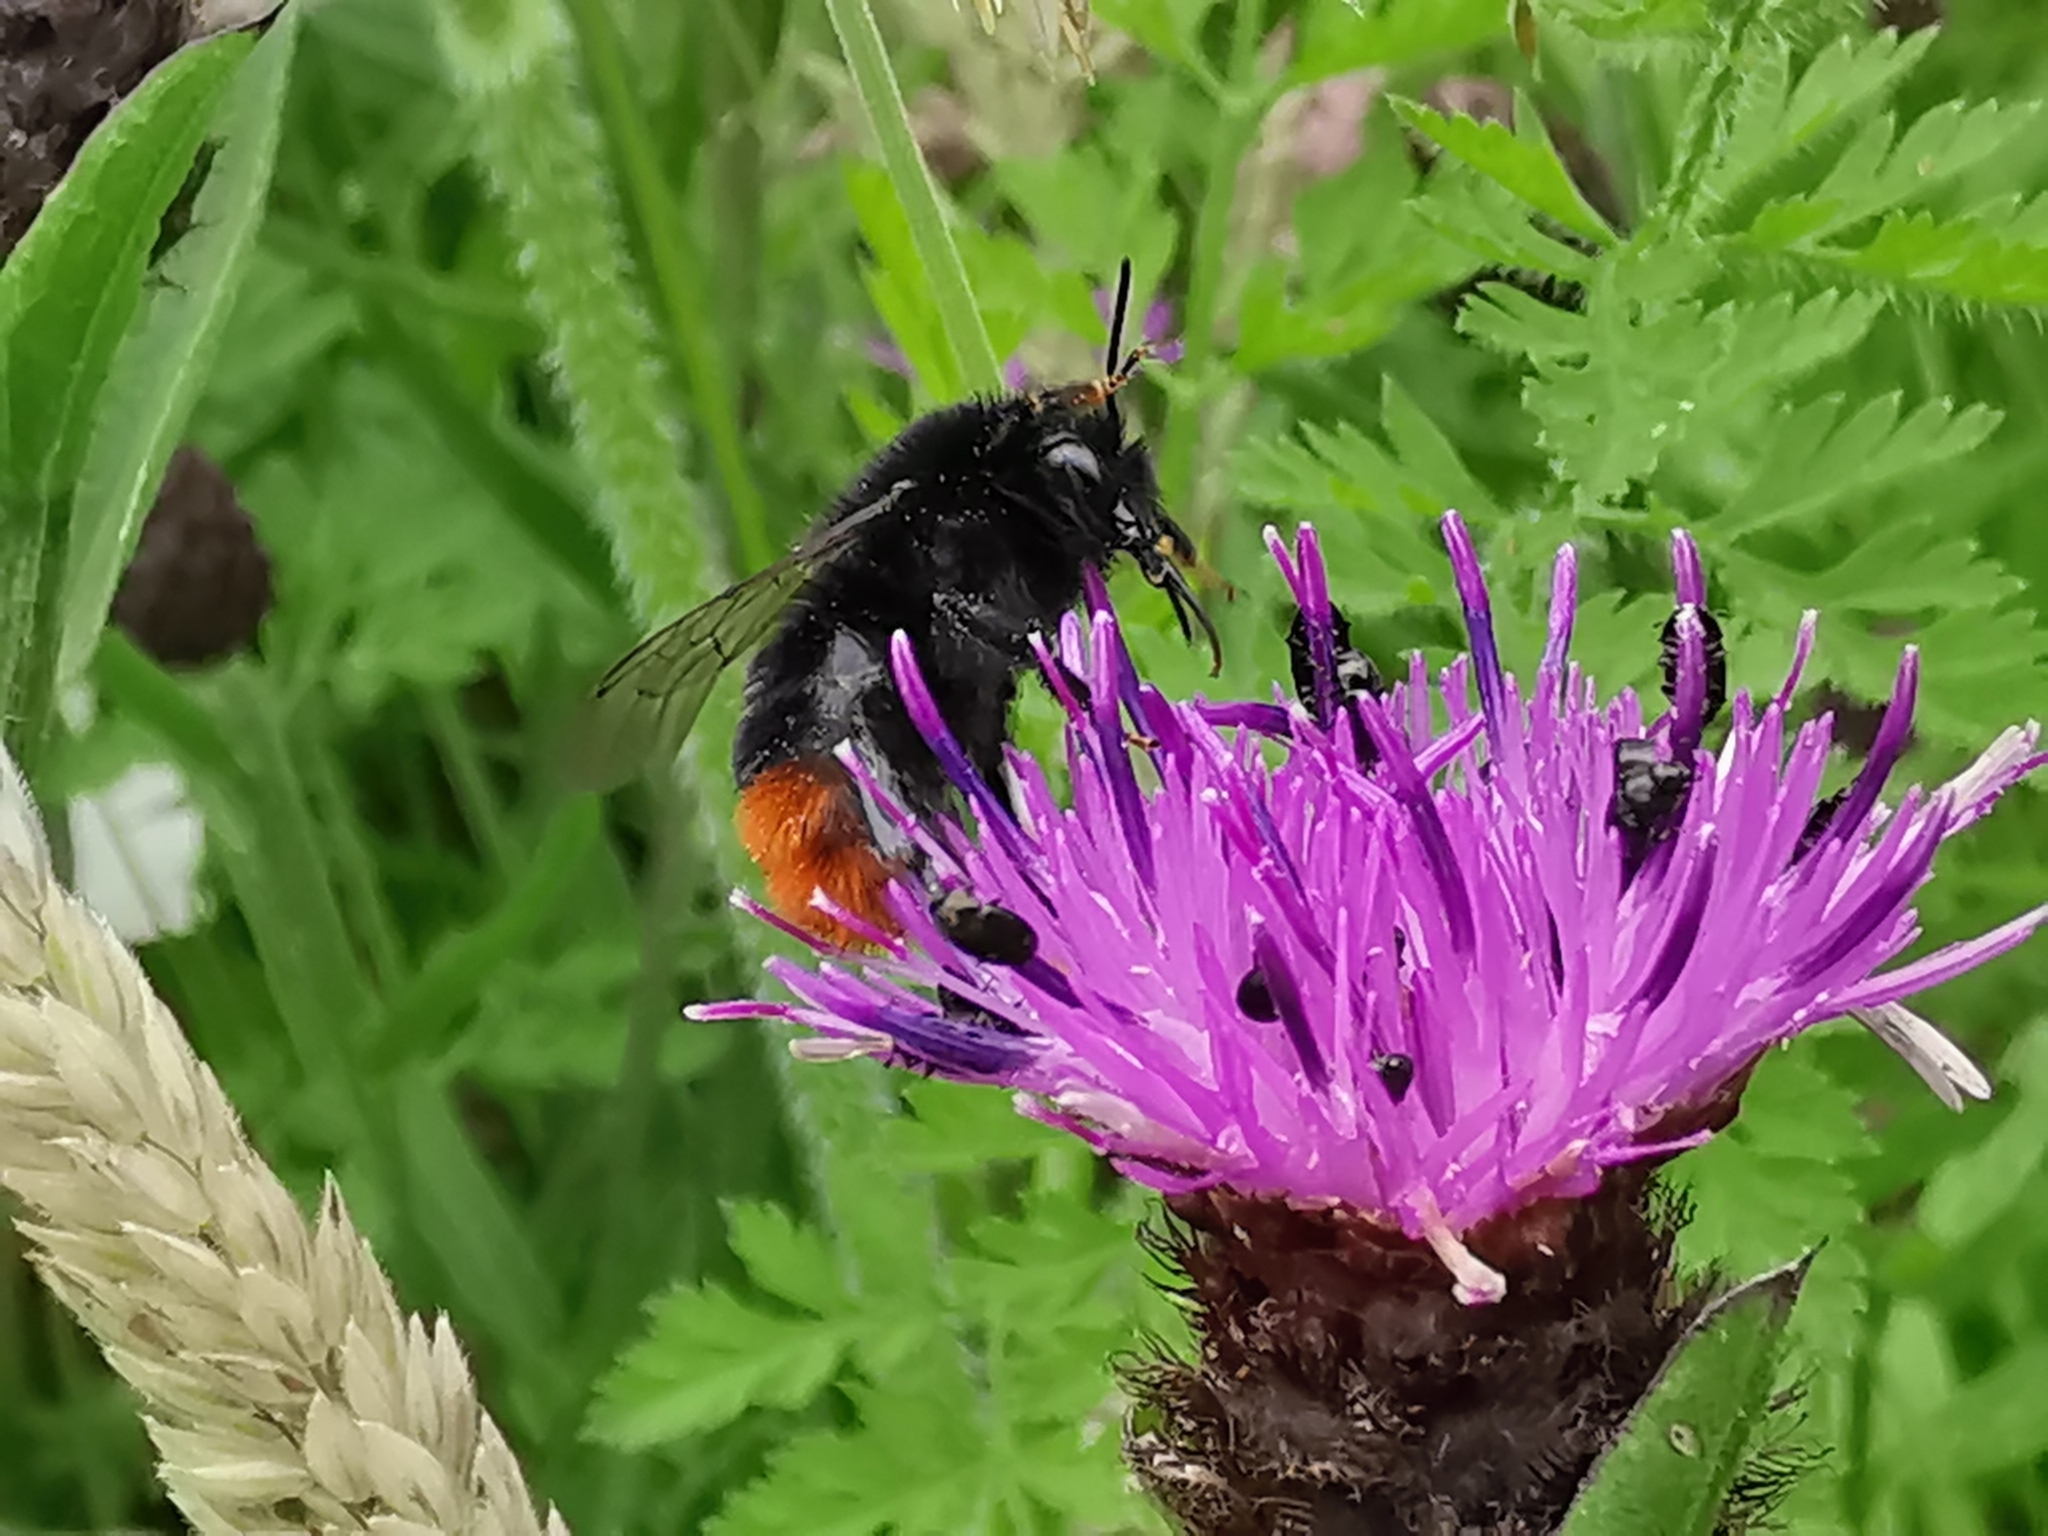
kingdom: Animalia
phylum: Arthropoda
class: Insecta
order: Hymenoptera
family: Apidae
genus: Bombus
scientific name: Bombus lapidarius
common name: Large red-tailed humble-bee
